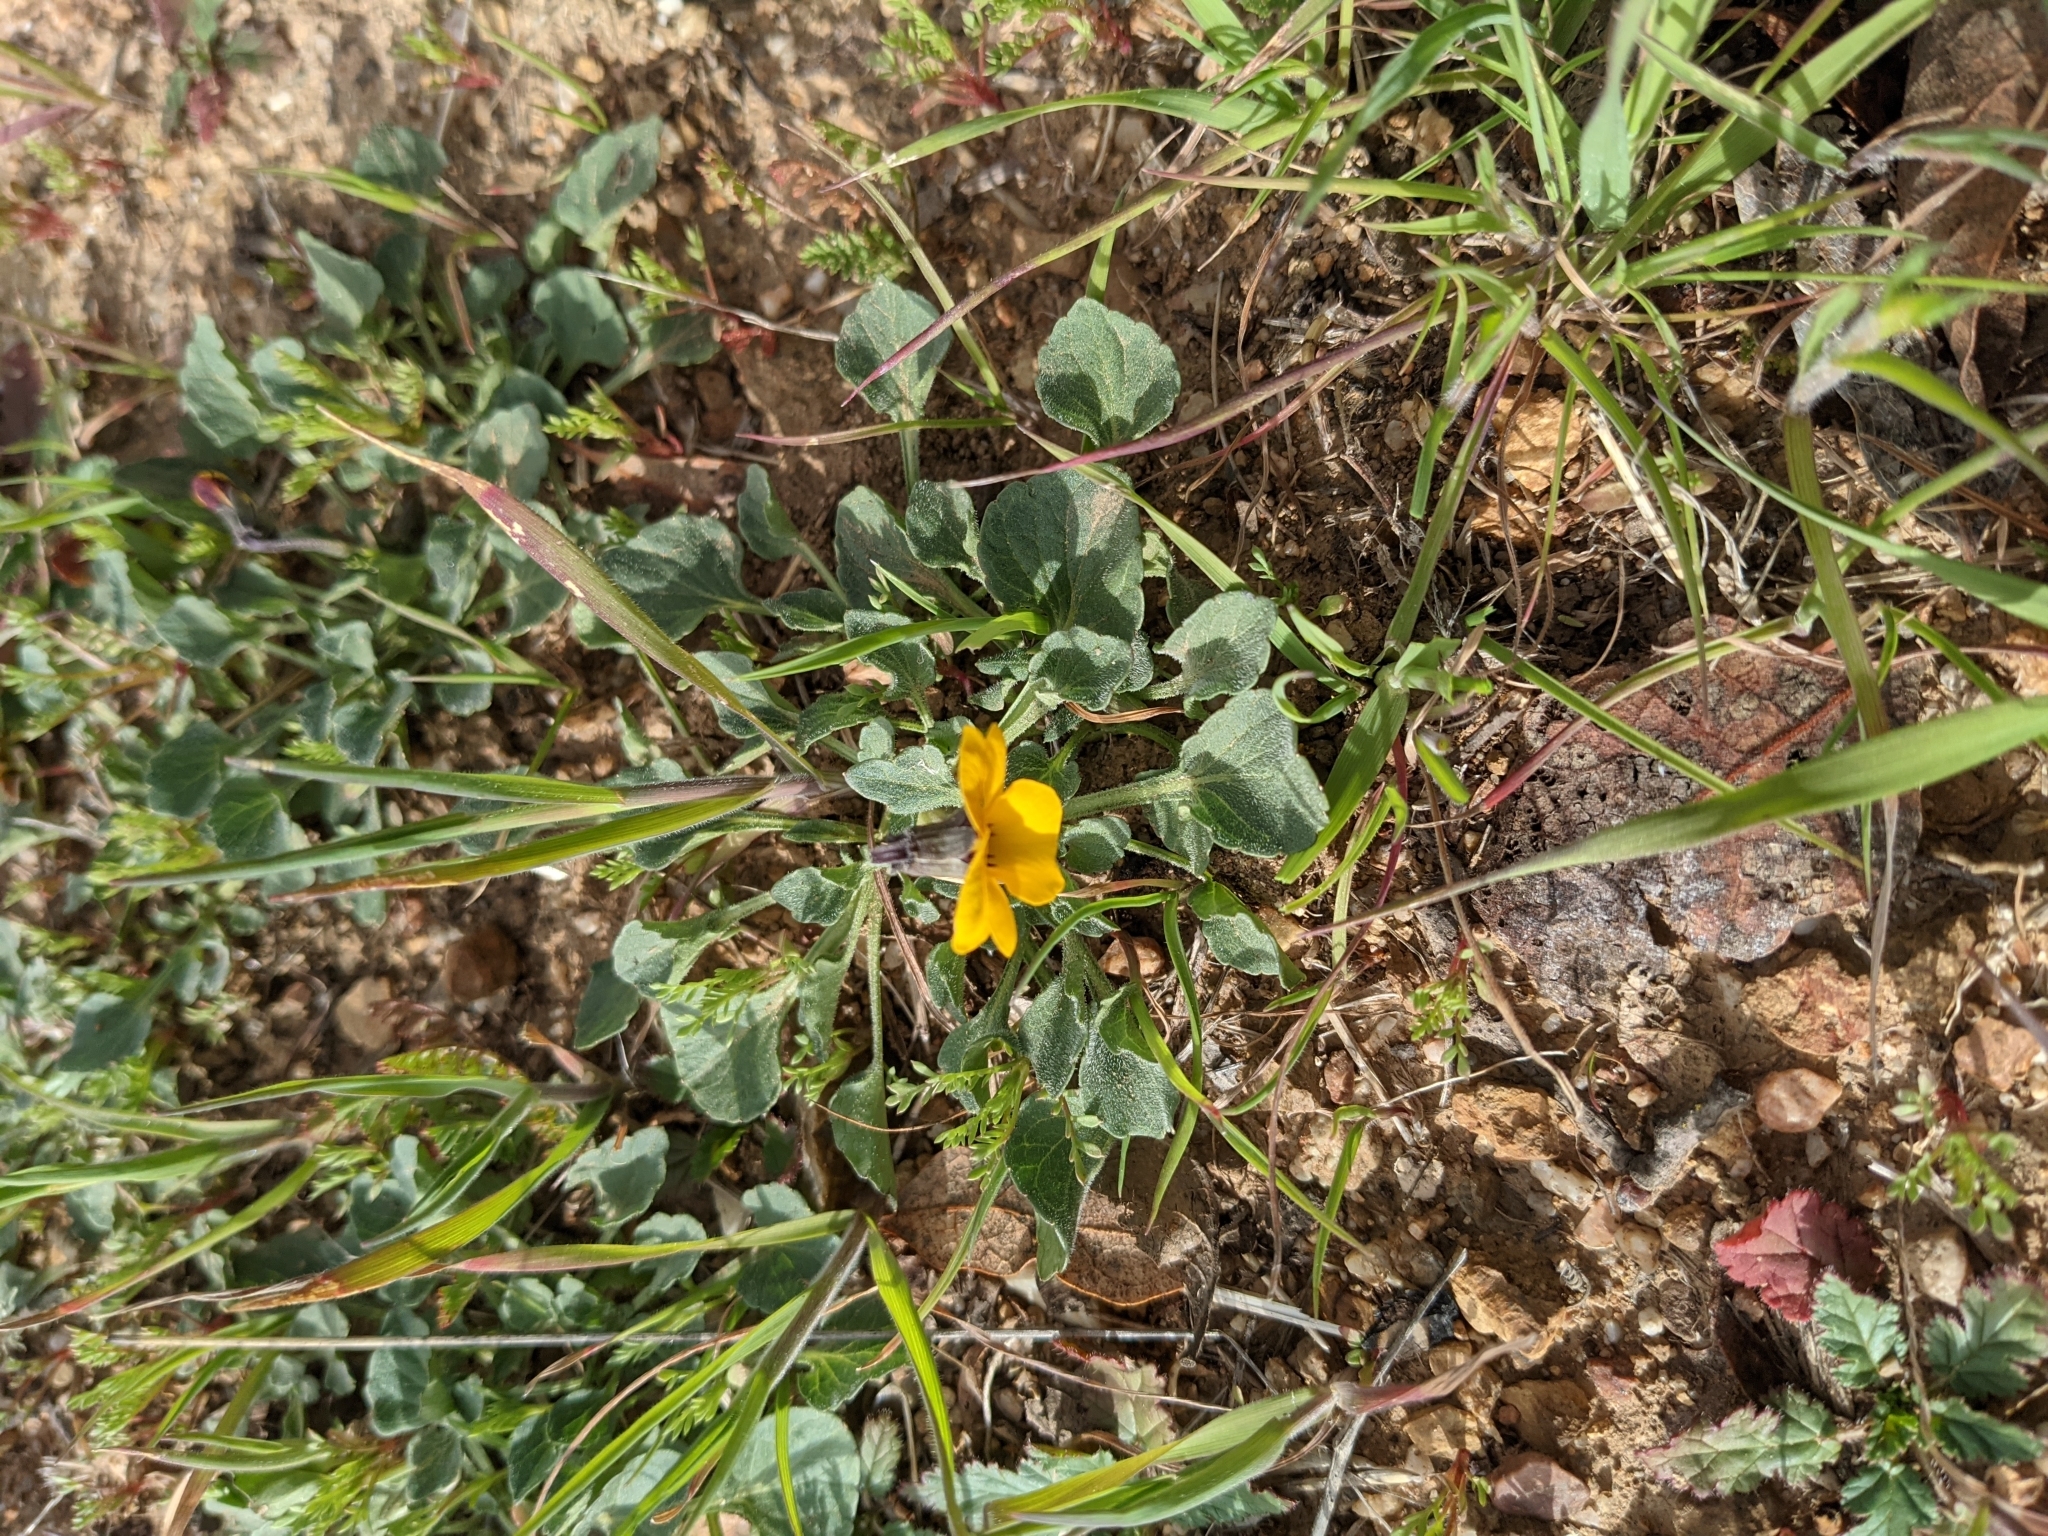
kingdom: Plantae
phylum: Tracheophyta
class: Magnoliopsida
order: Malpighiales
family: Violaceae
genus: Viola
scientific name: Viola pedunculata
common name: California golden violet
